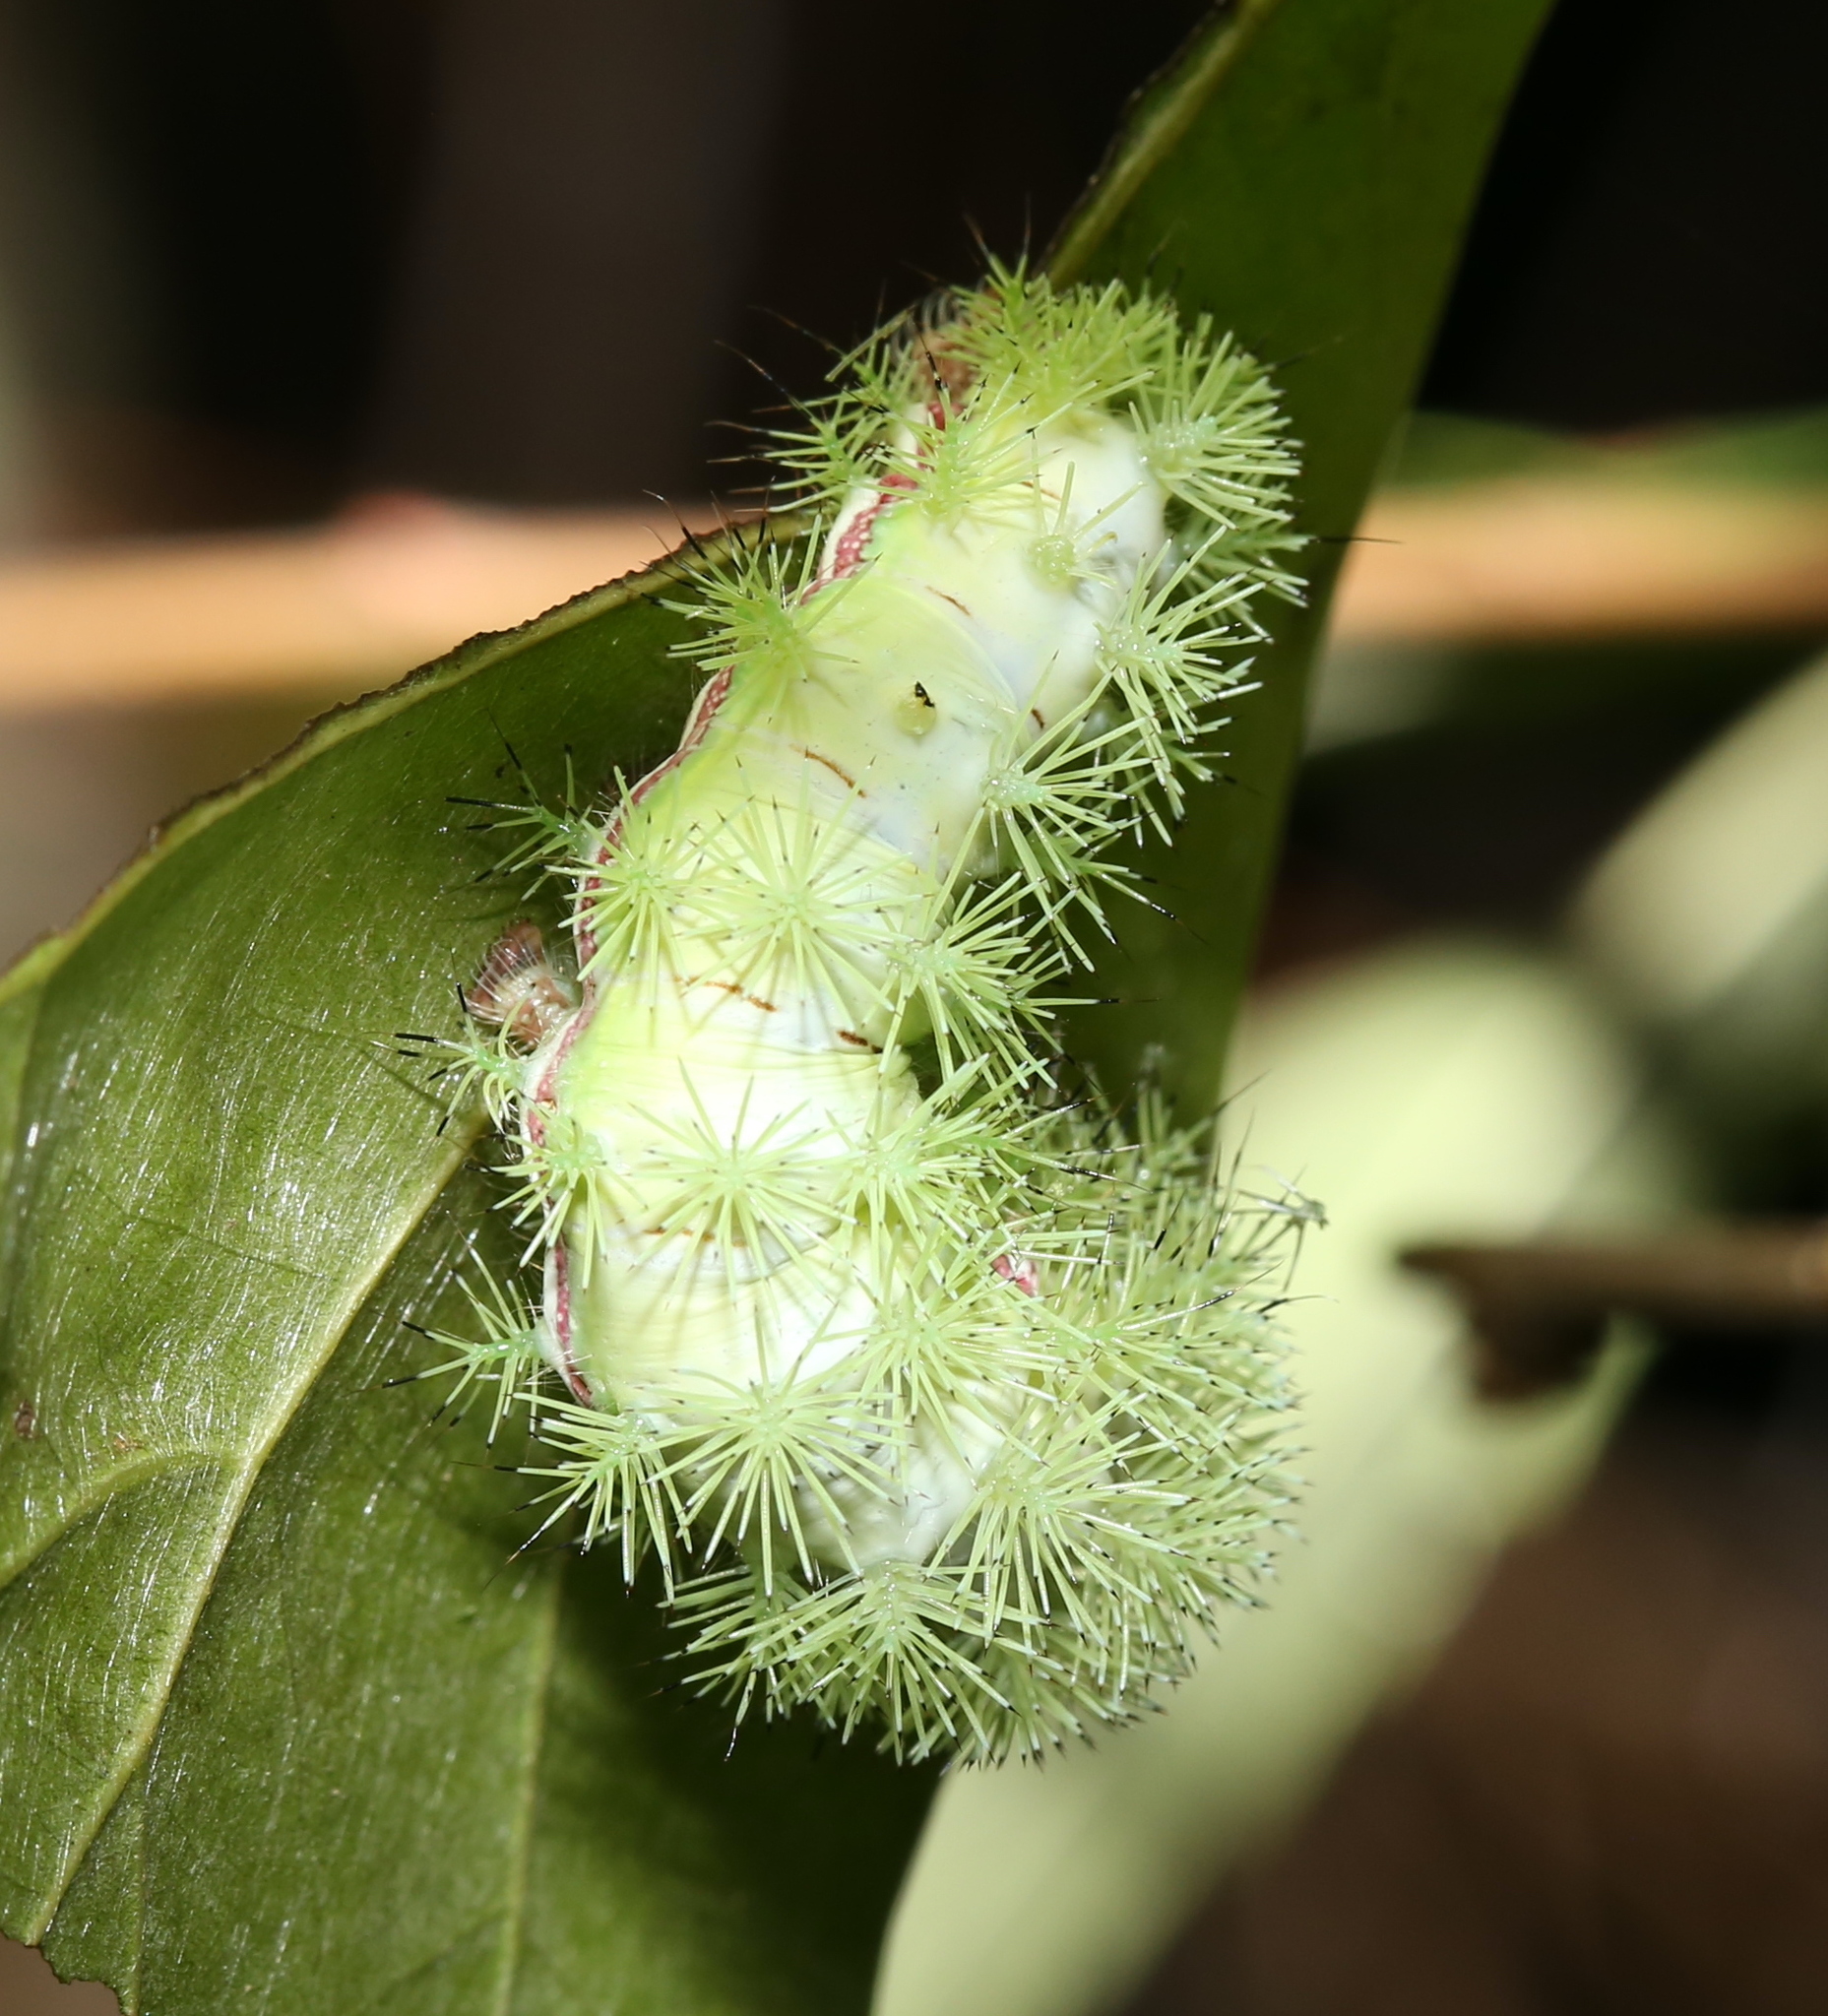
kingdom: Animalia
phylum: Arthropoda
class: Insecta
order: Lepidoptera
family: Saturniidae
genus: Automeris
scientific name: Automeris io
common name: Io moth
